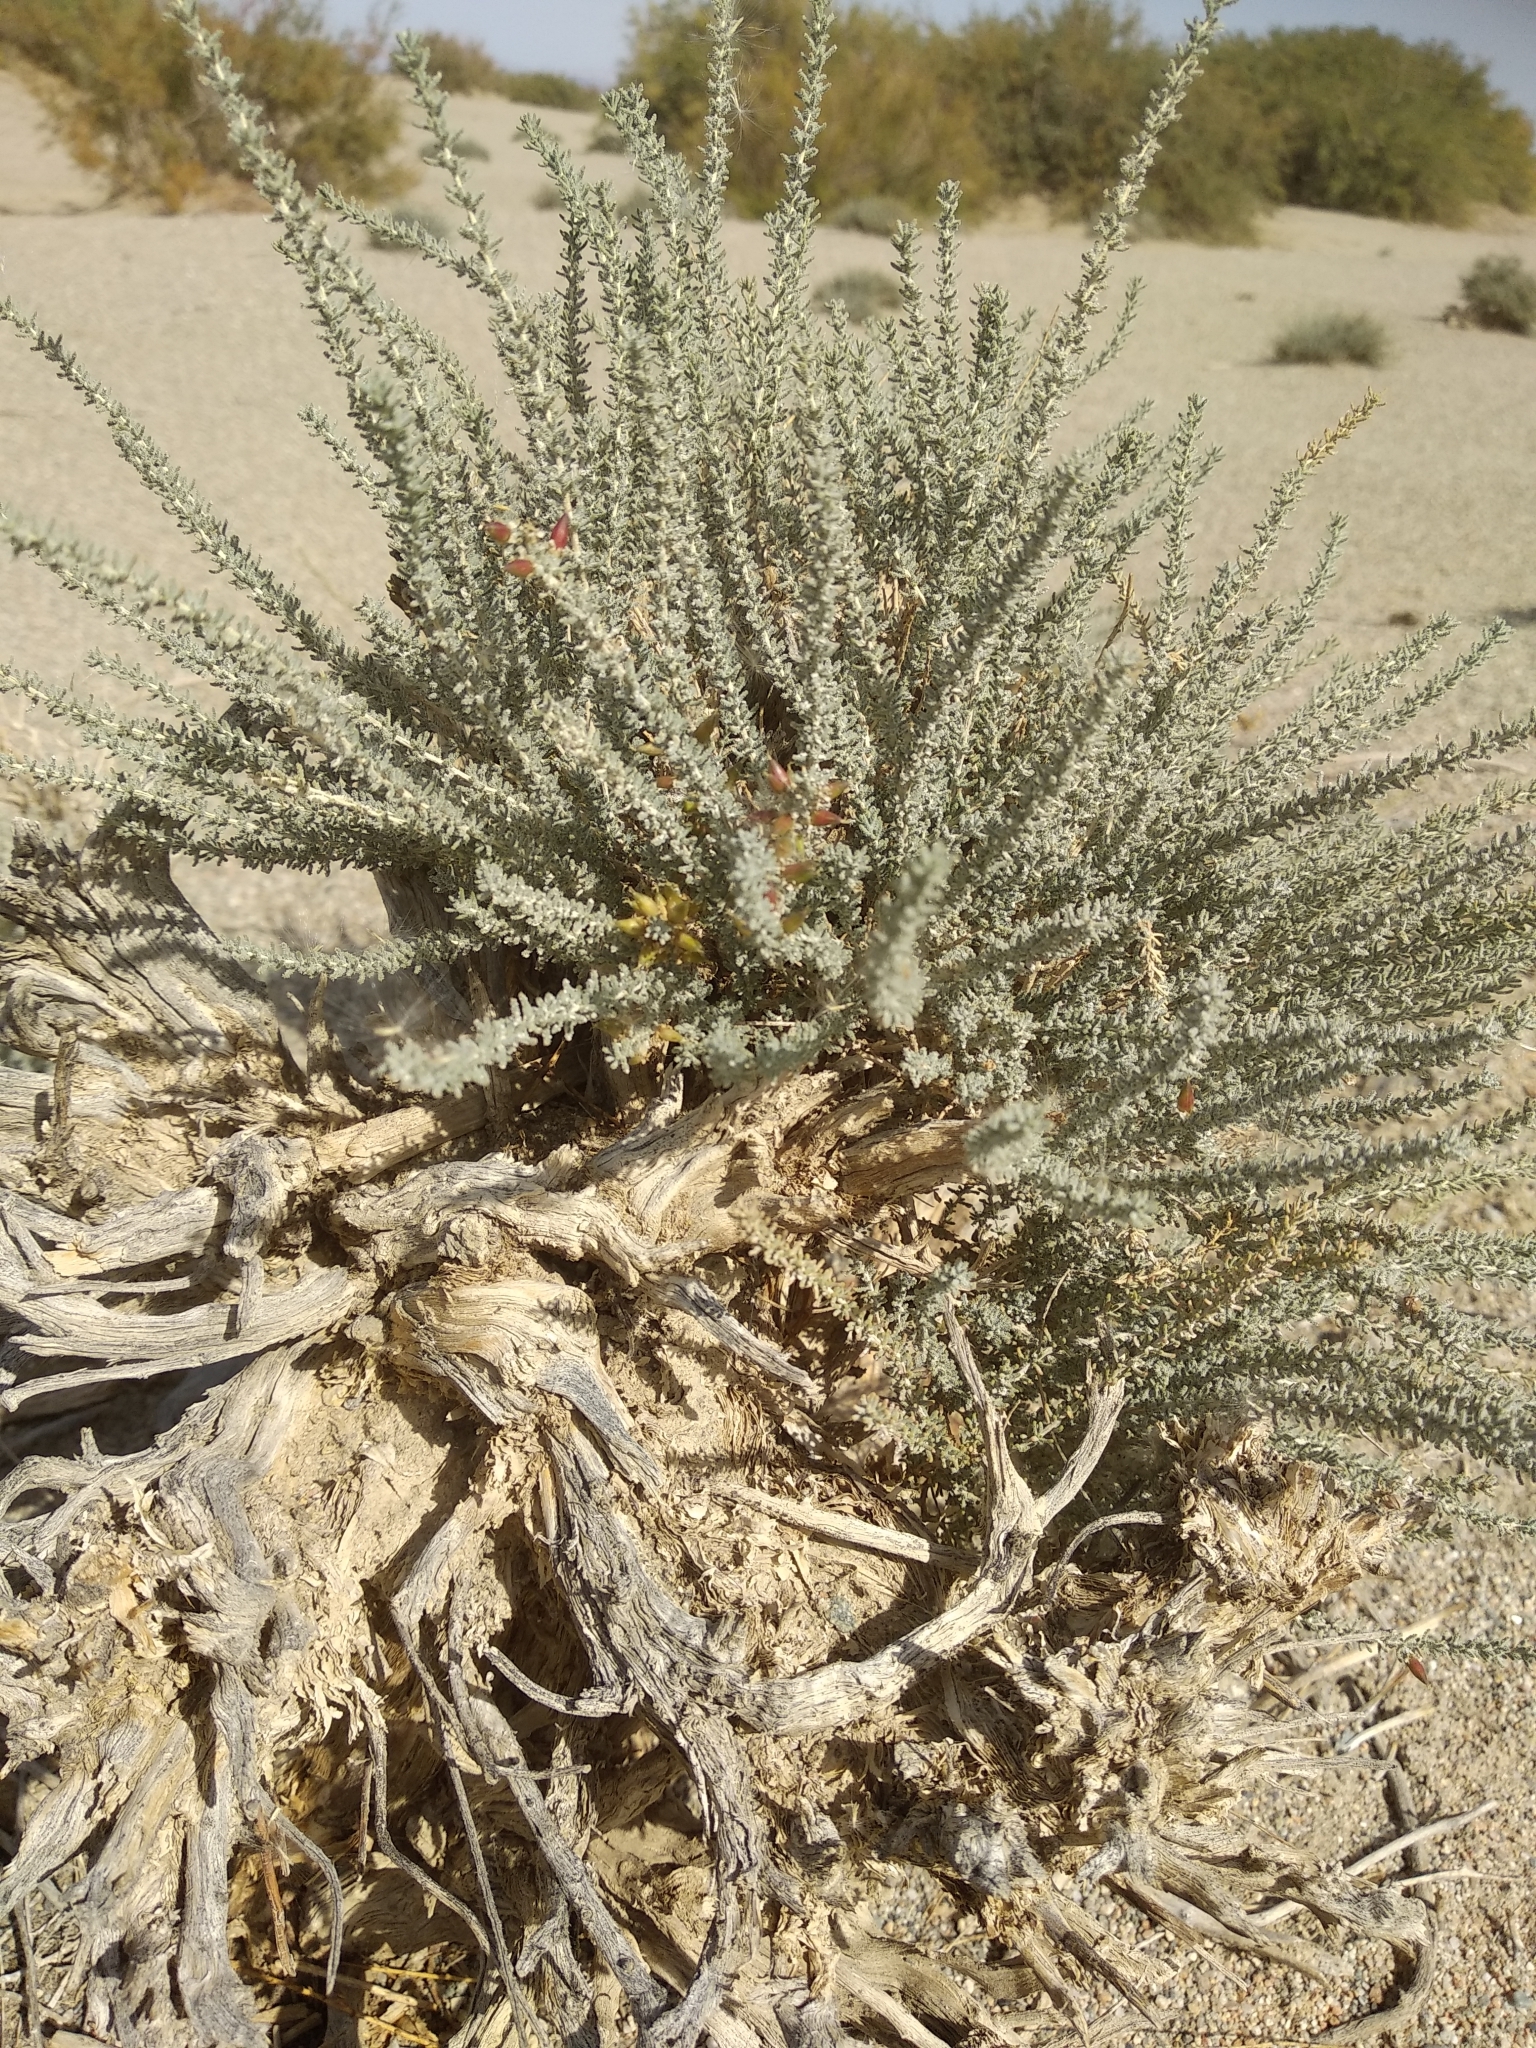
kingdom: Plantae
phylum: Tracheophyta
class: Magnoliopsida
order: Caryophyllales
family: Tamaricaceae
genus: Reaumuria
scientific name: Reaumuria songarica
